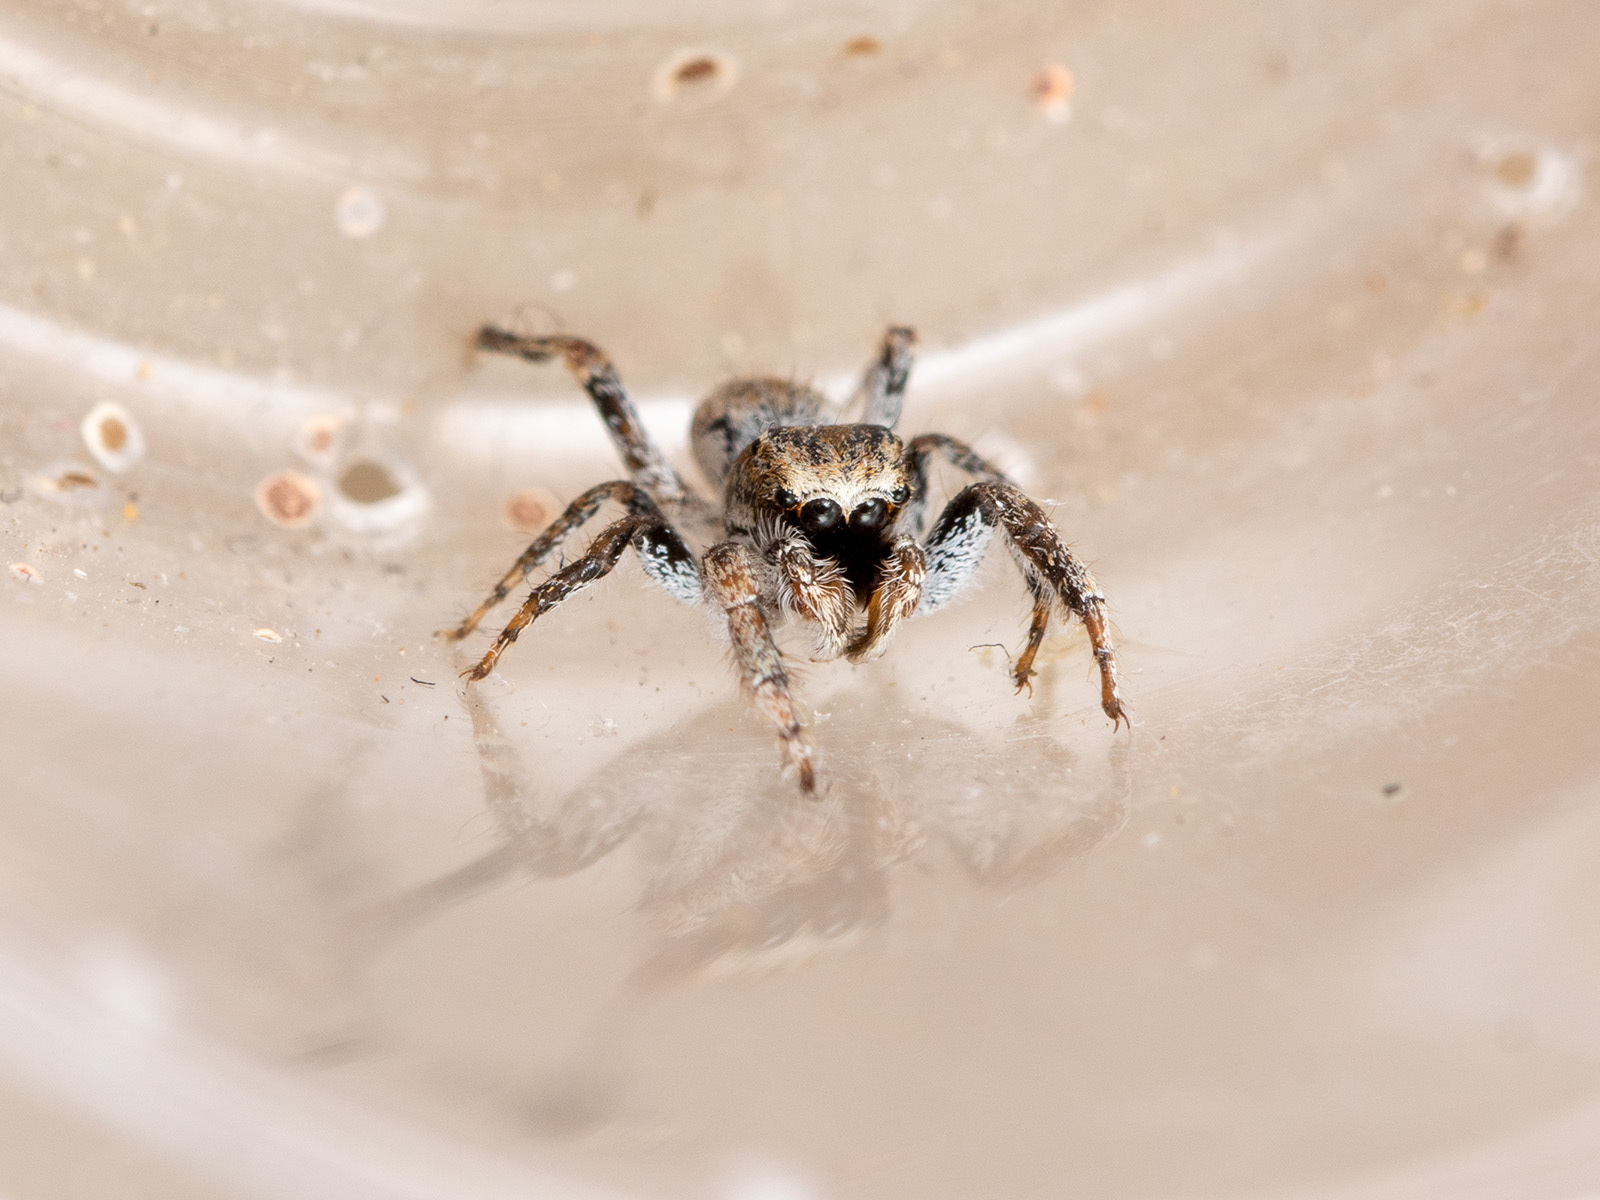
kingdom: Animalia
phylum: Arthropoda
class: Arachnida
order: Araneae
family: Salticidae
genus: Marusyllus
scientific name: Marusyllus aralicus
